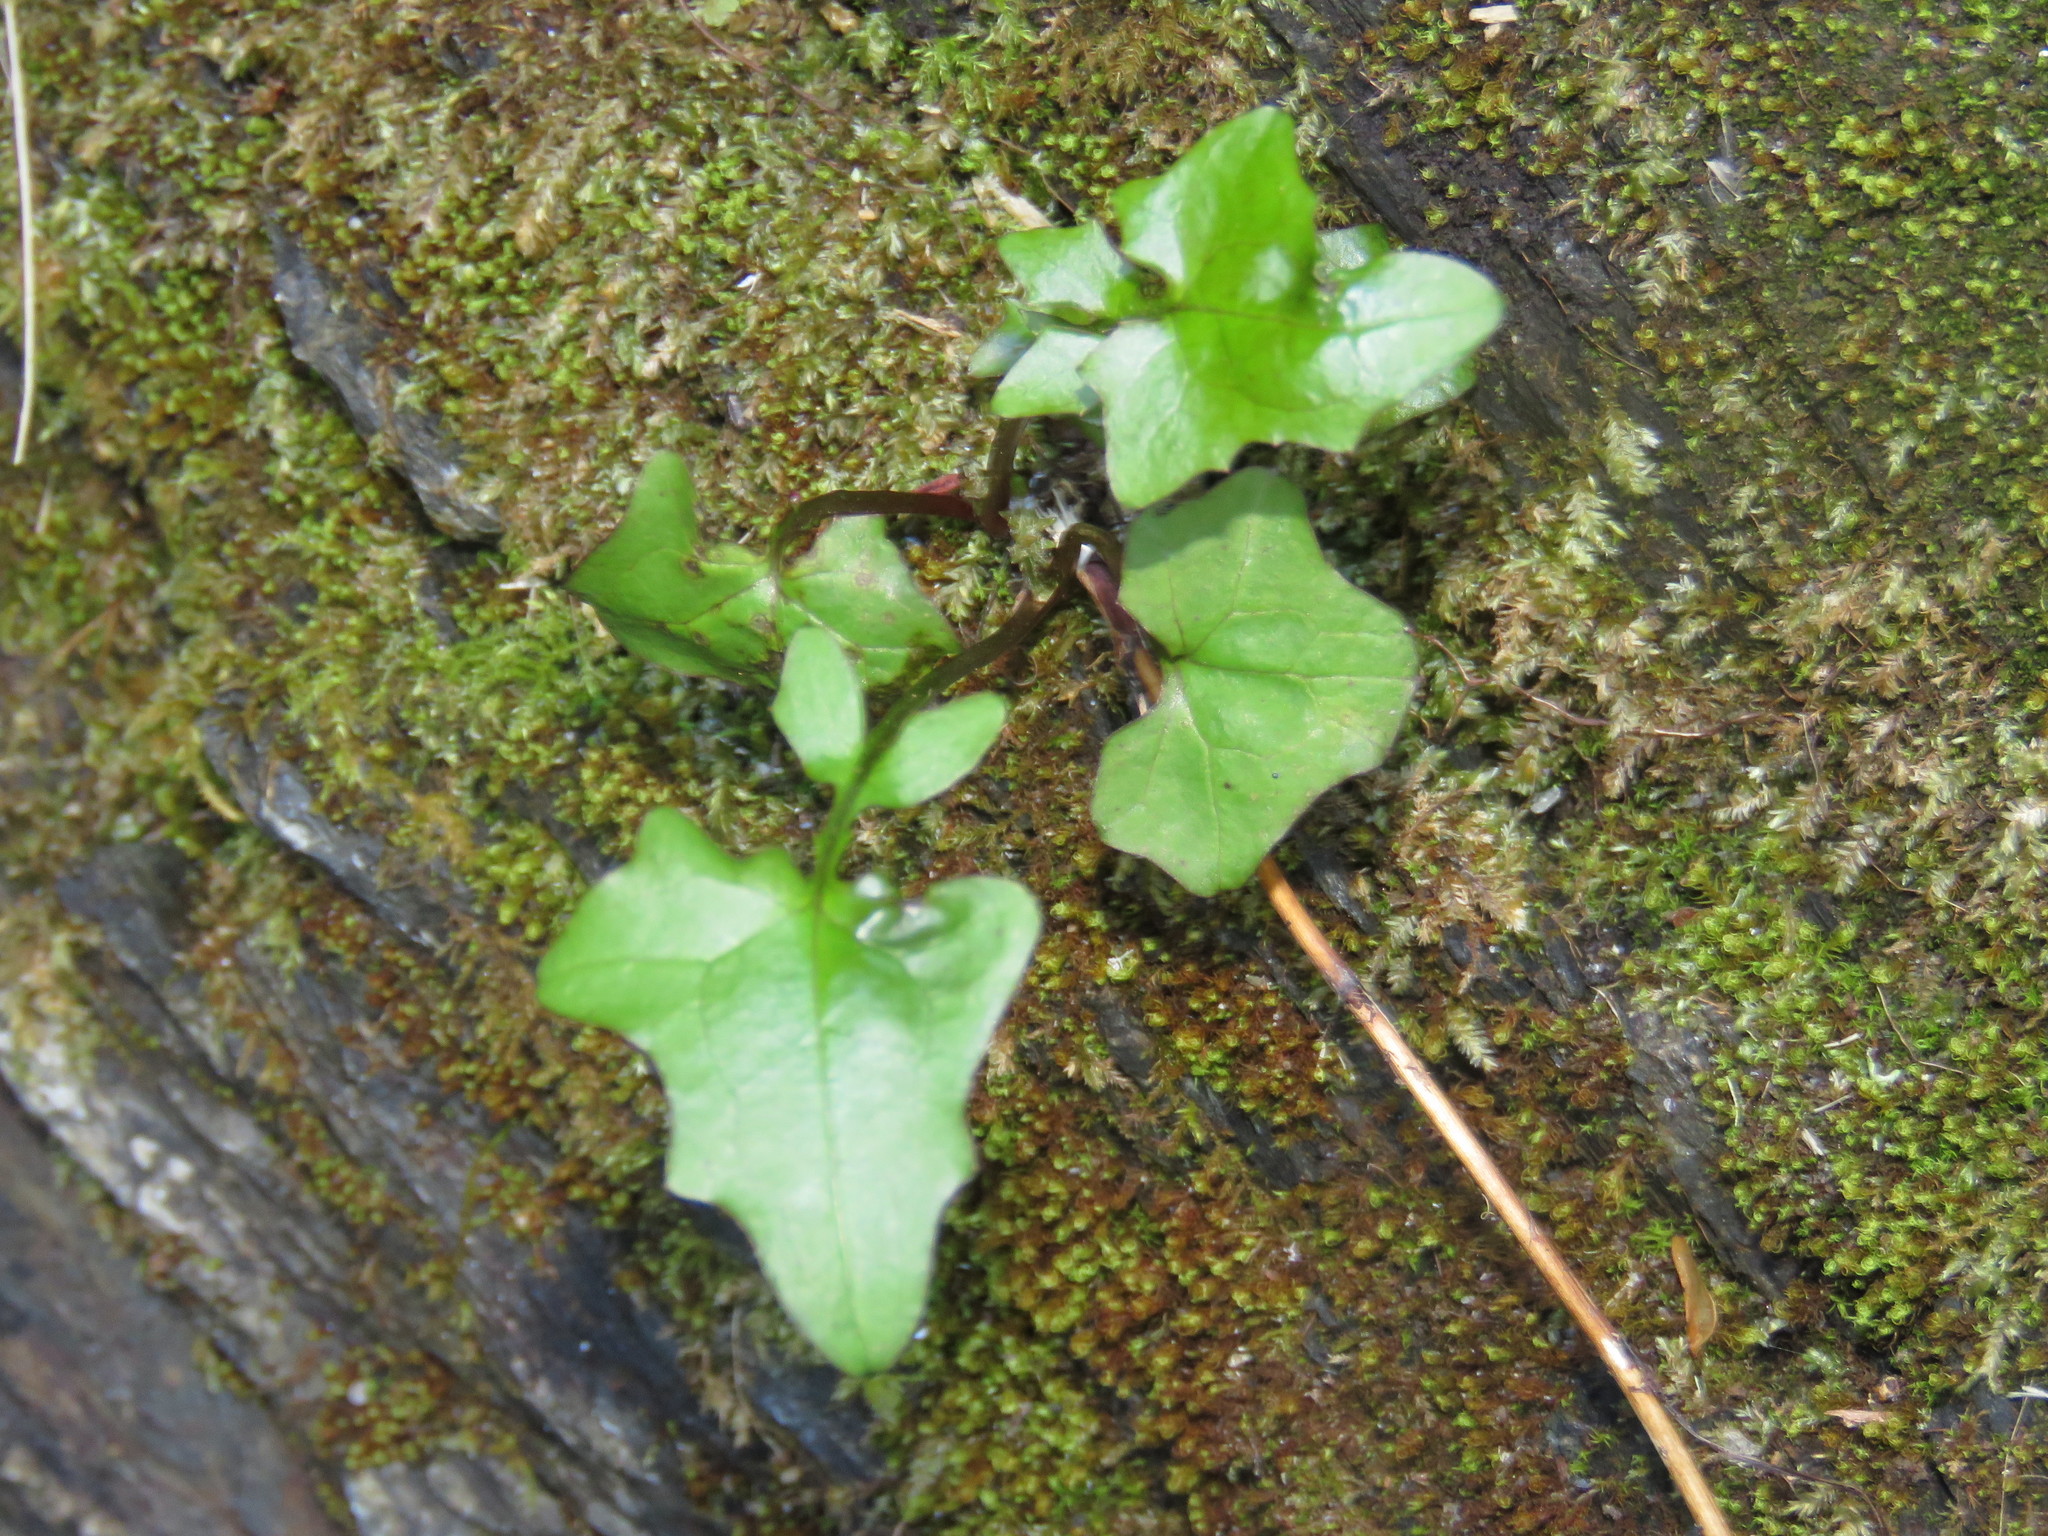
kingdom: Plantae
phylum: Tracheophyta
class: Magnoliopsida
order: Asterales
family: Asteraceae
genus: Mycelis
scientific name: Mycelis muralis
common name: Wall lettuce
